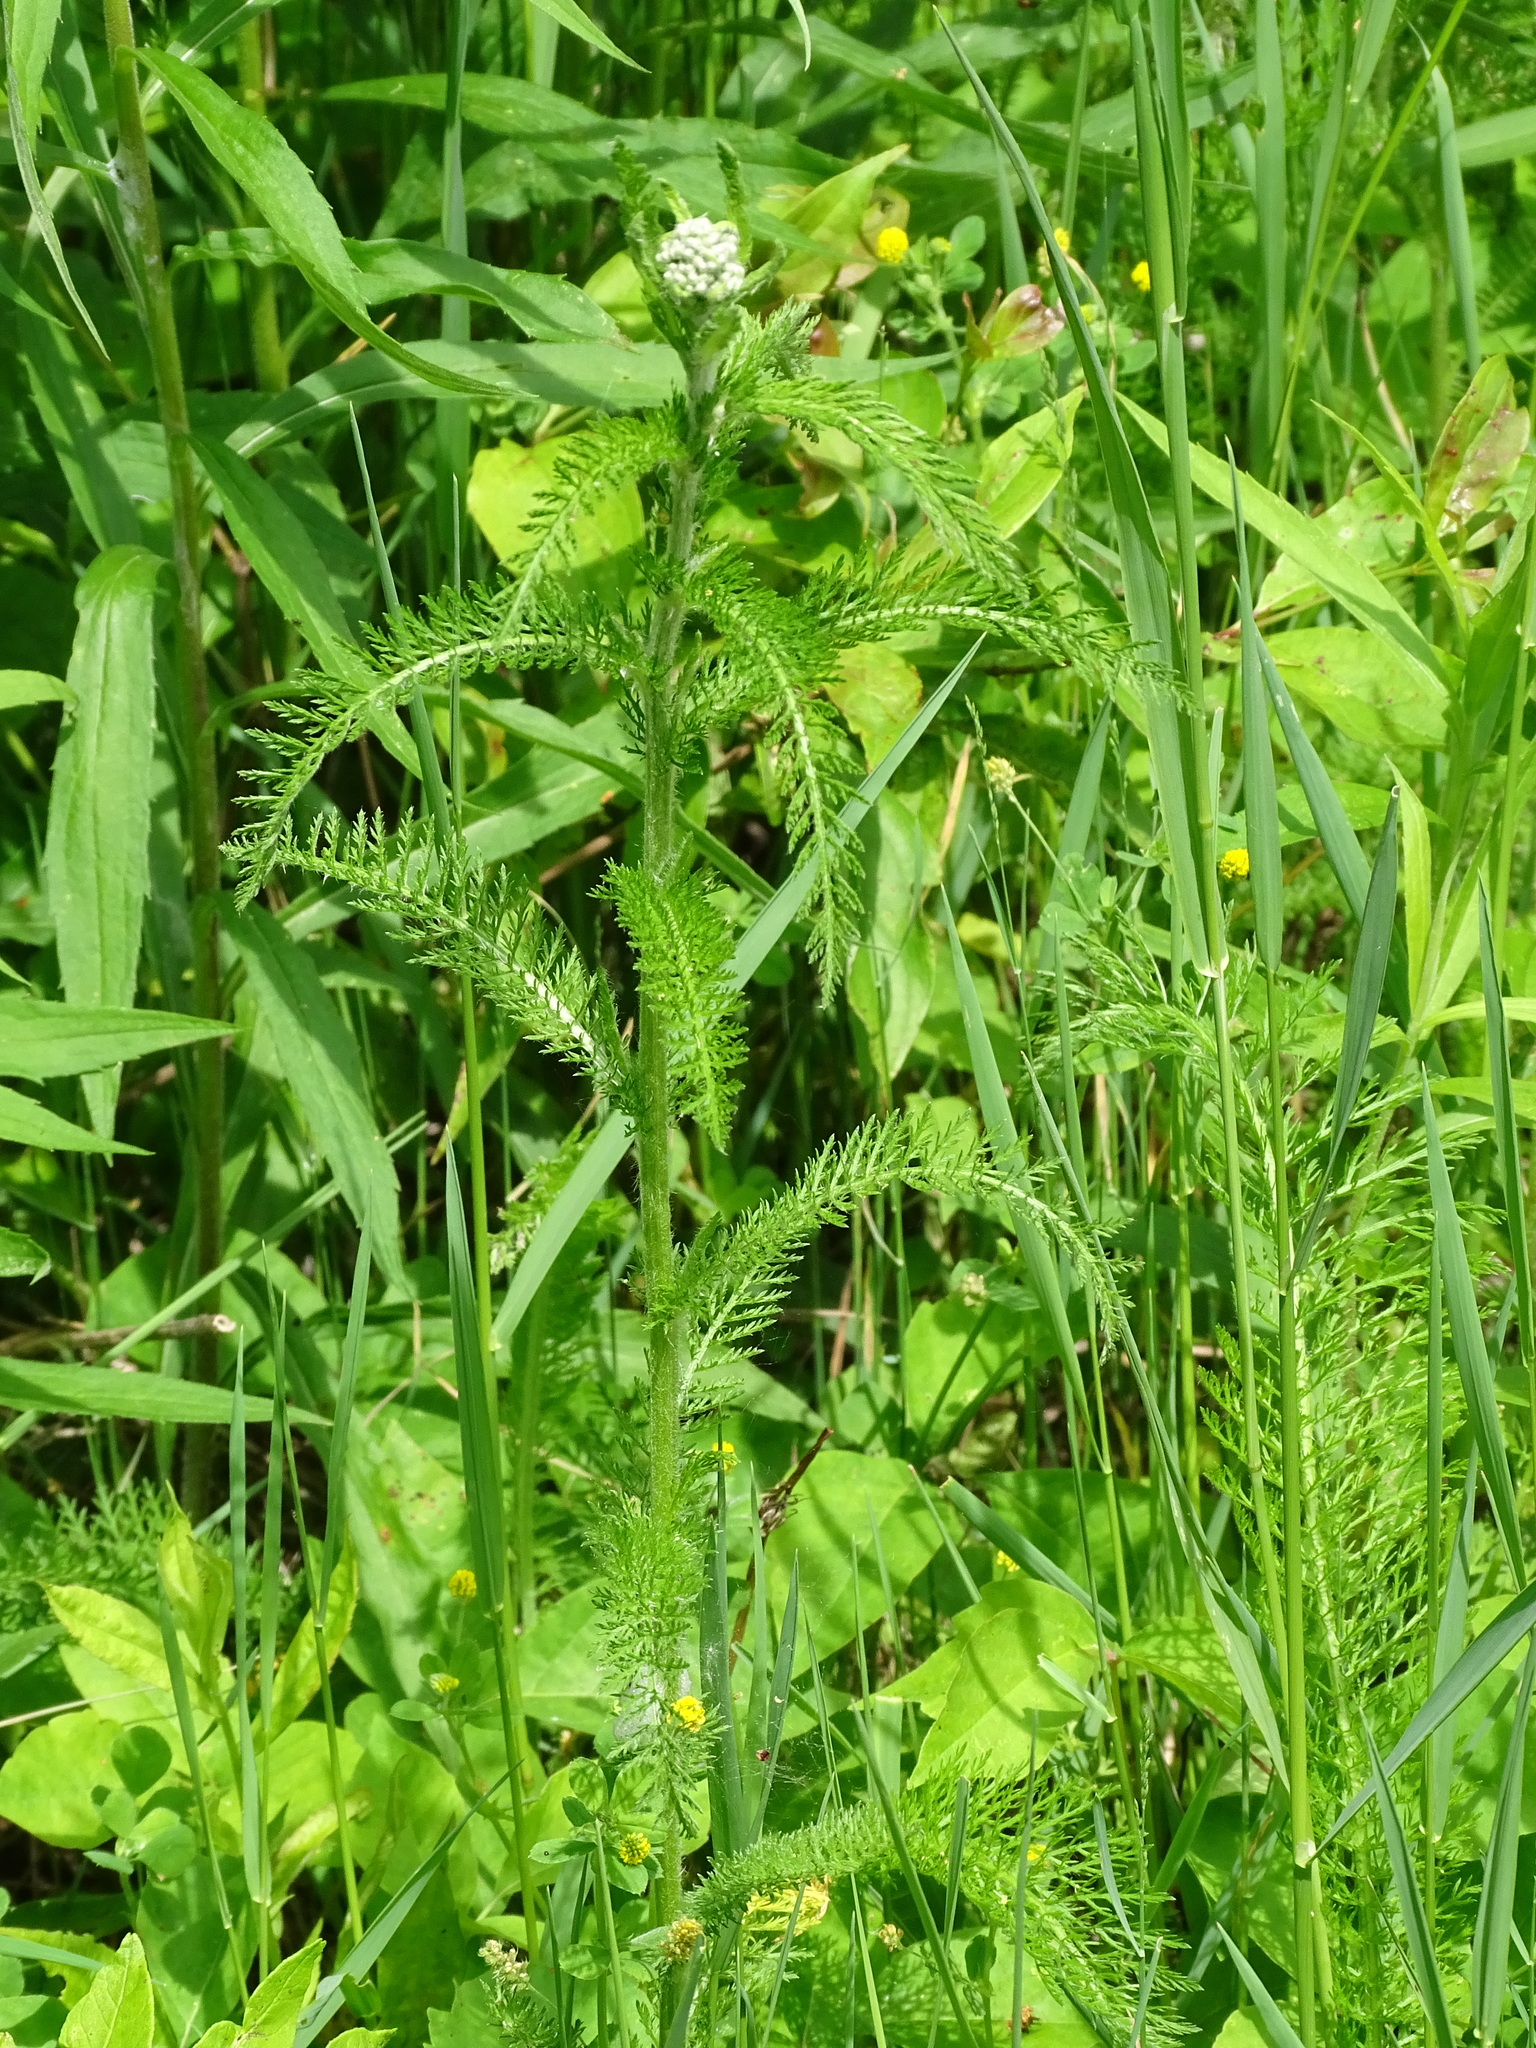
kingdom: Plantae
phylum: Tracheophyta
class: Magnoliopsida
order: Asterales
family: Asteraceae
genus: Achillea
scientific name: Achillea millefolium
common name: Yarrow
